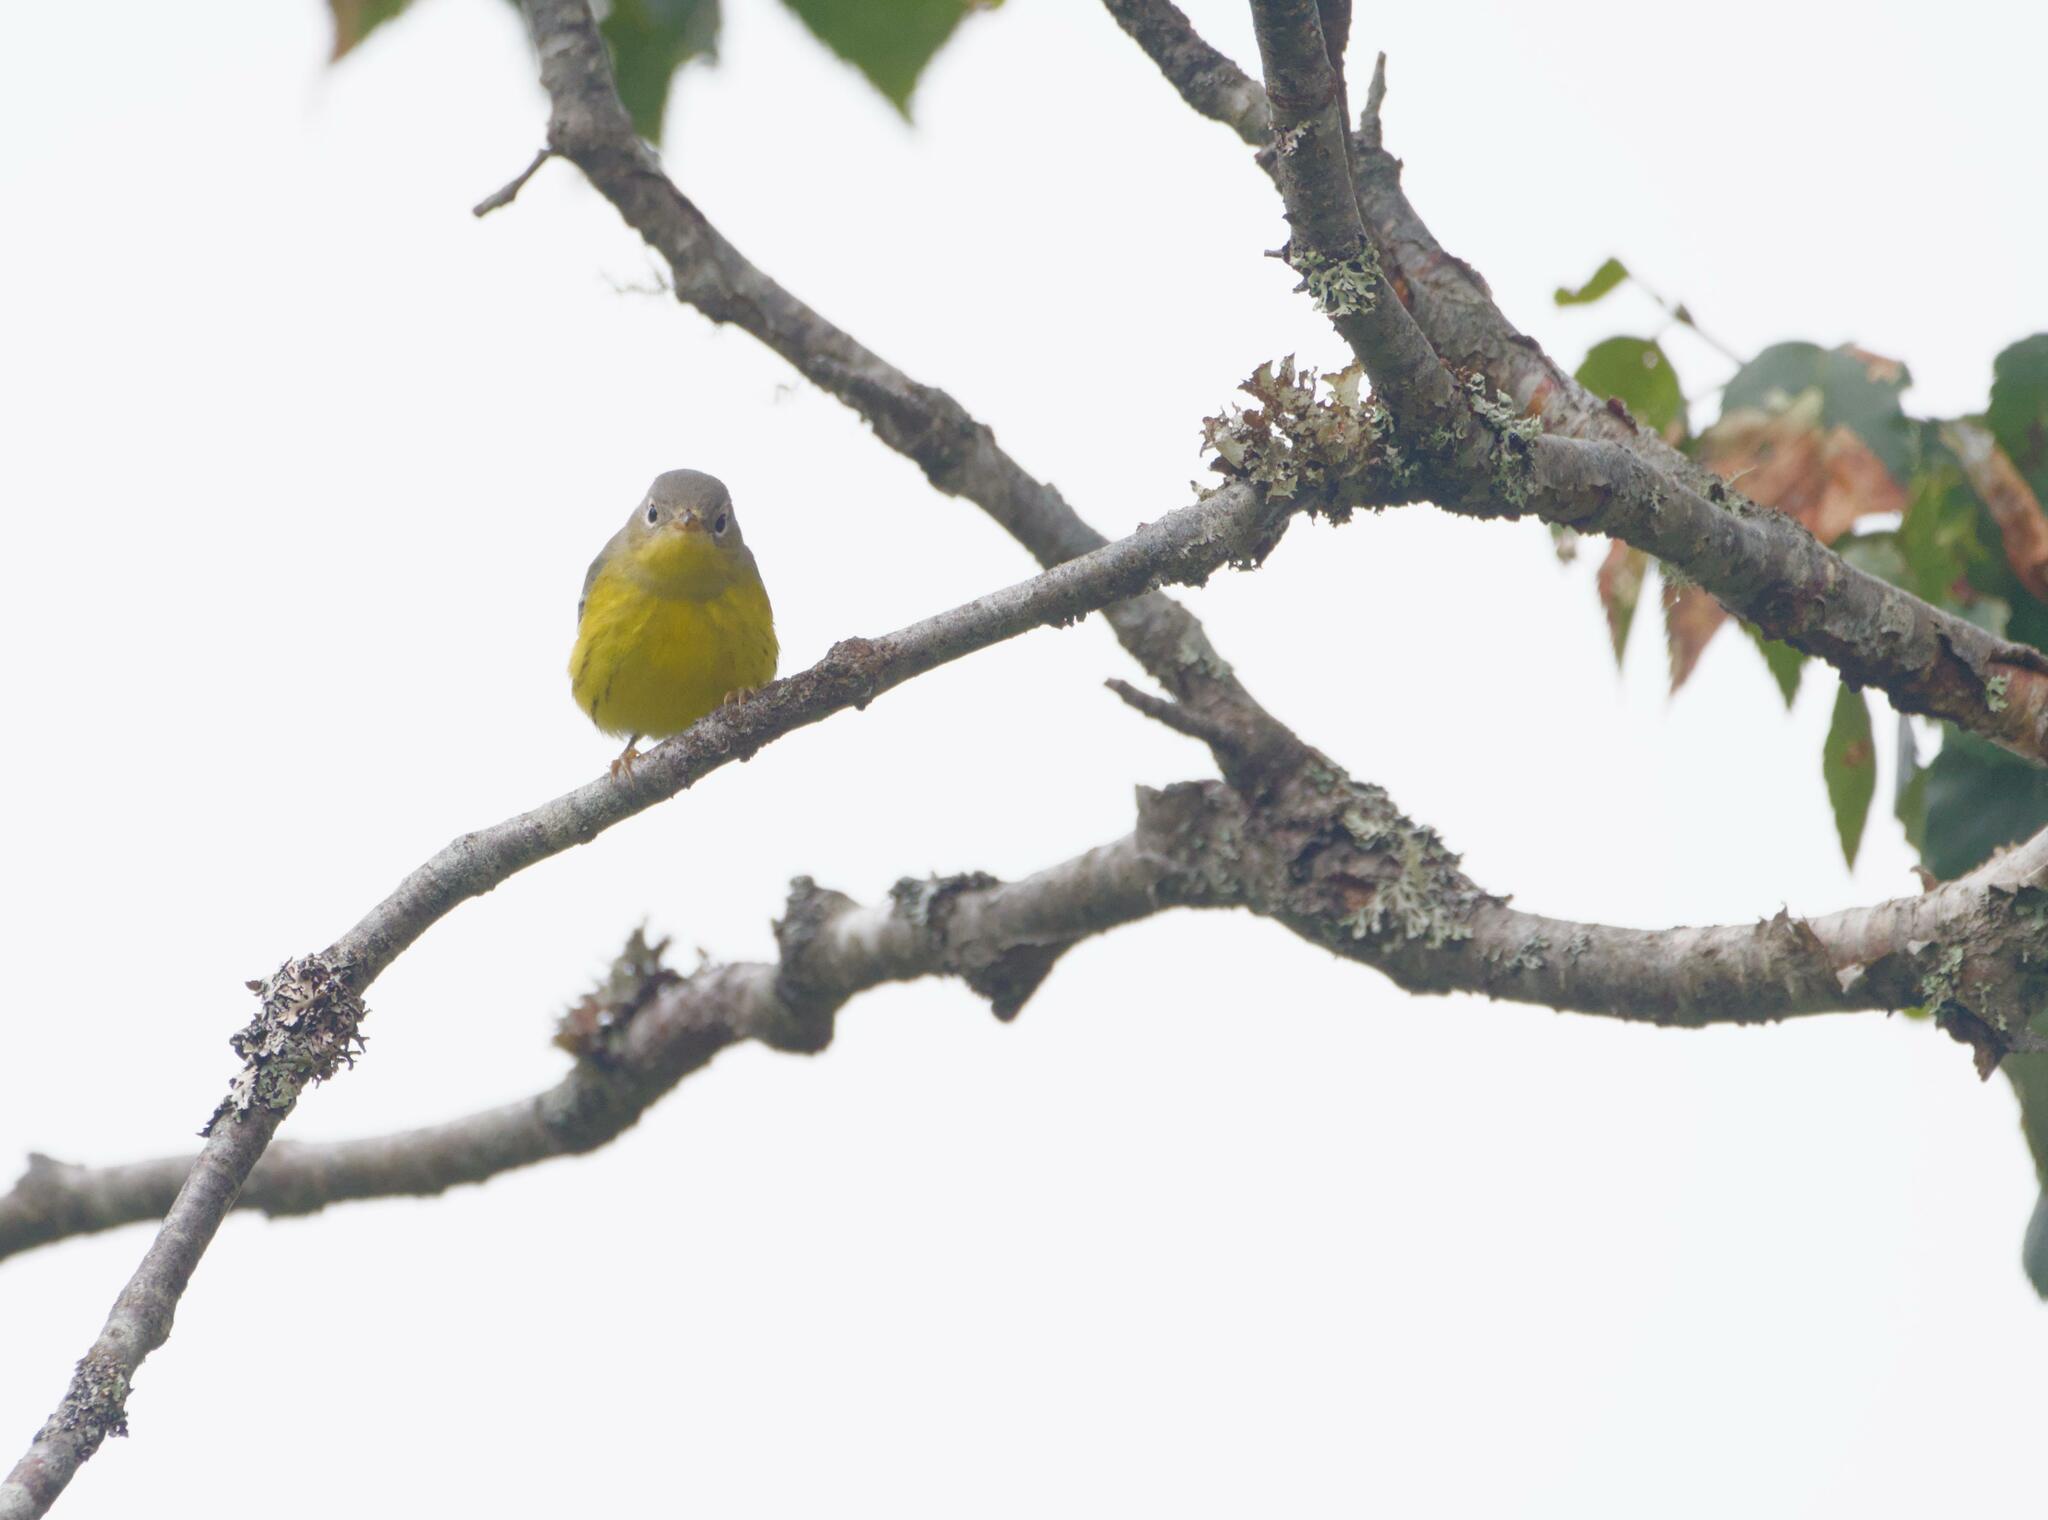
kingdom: Animalia
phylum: Chordata
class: Aves
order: Passeriformes
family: Parulidae
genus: Setophaga
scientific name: Setophaga magnolia
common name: Magnolia warbler
